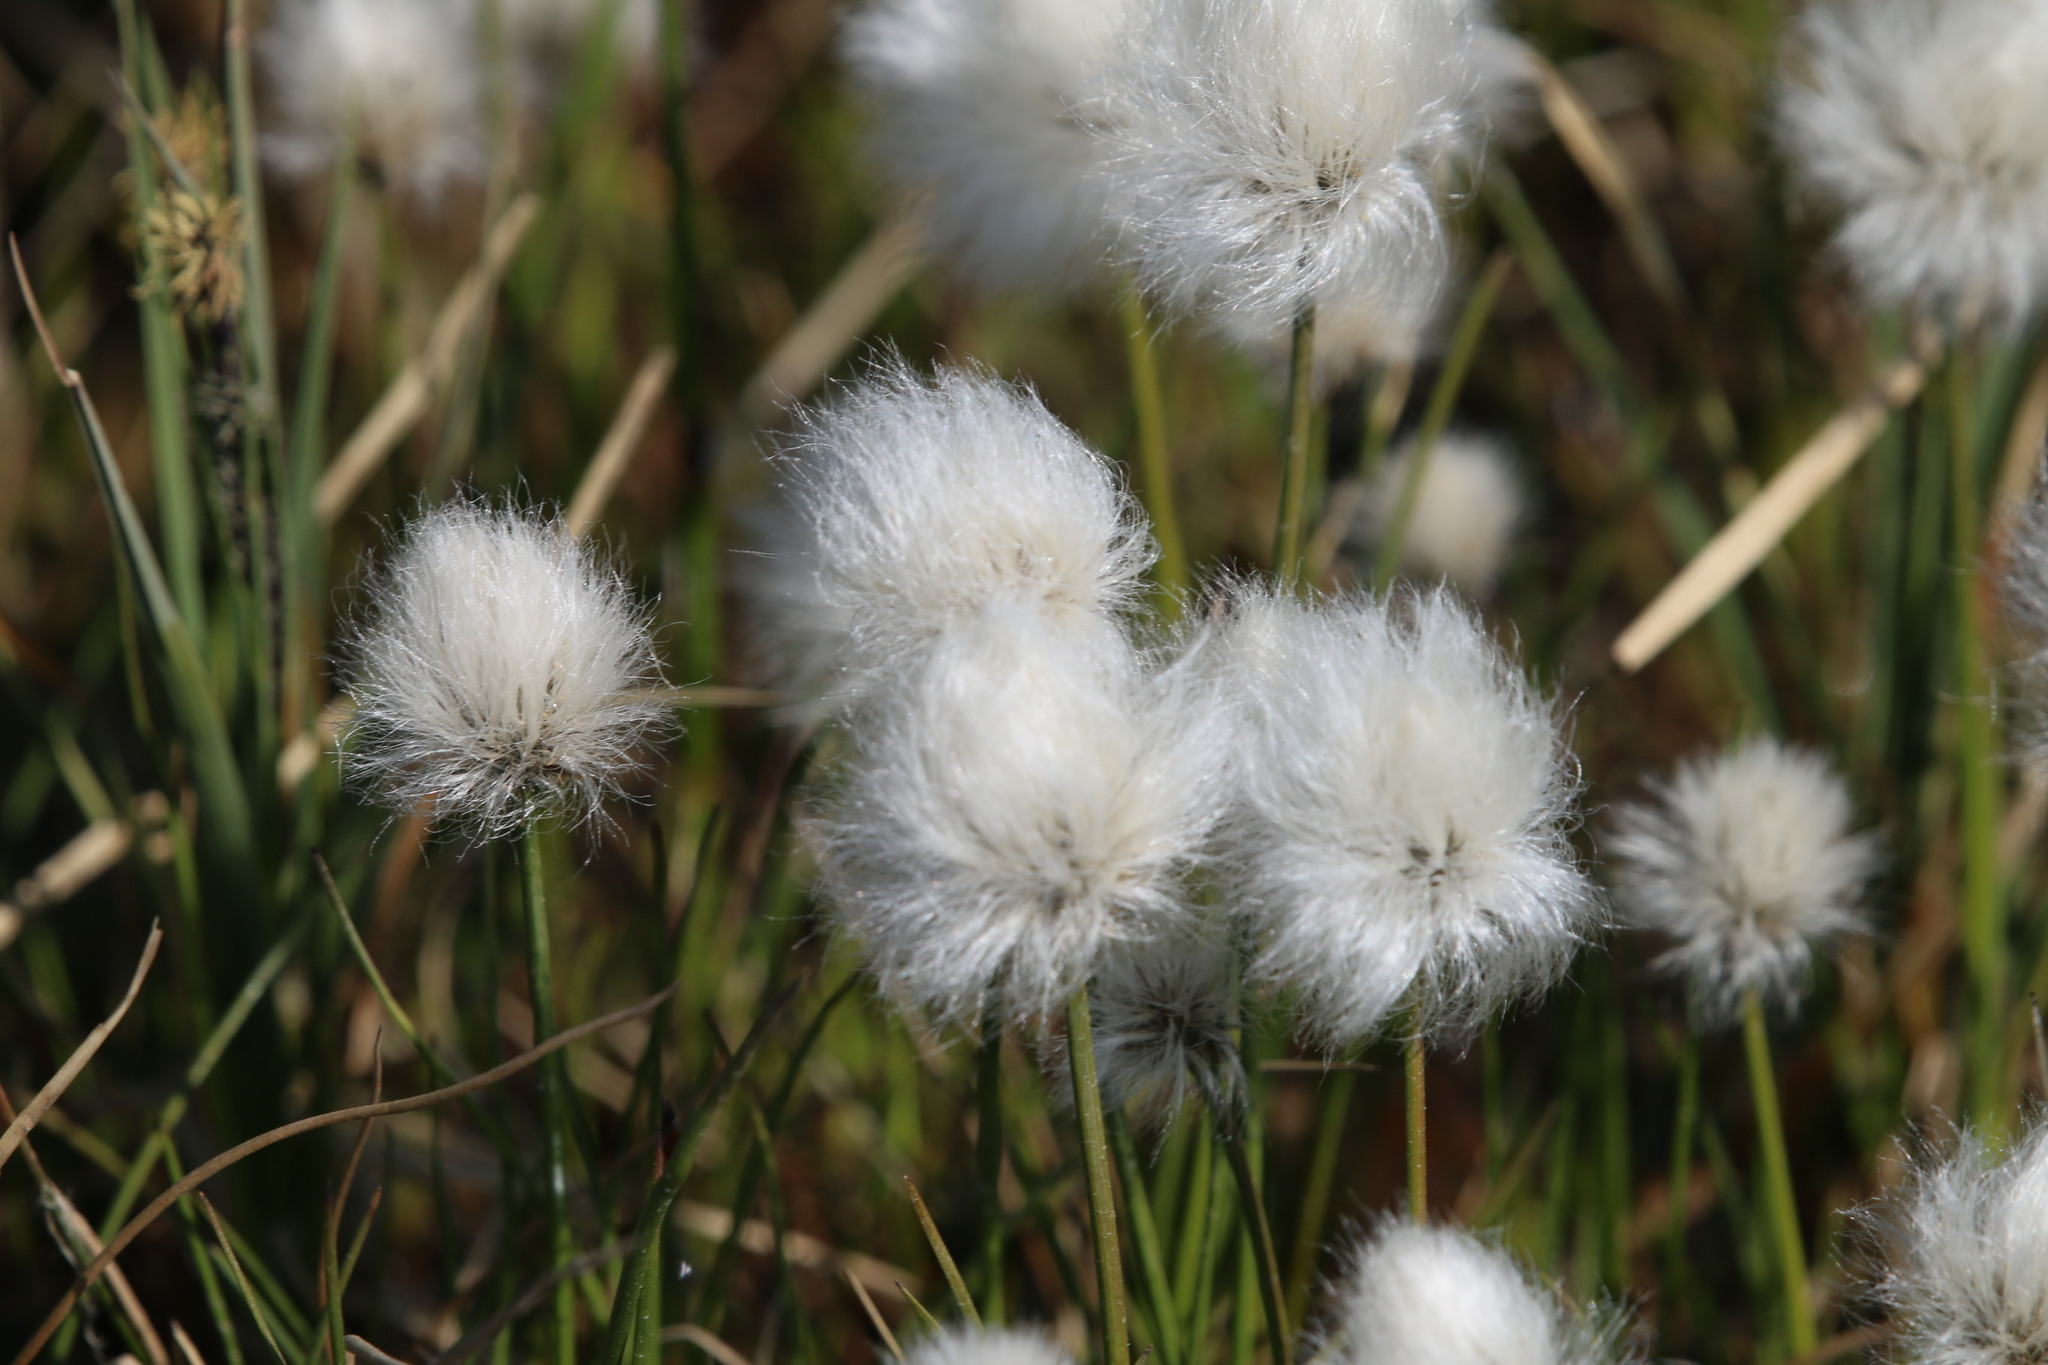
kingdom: Plantae
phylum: Tracheophyta
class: Liliopsida
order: Poales
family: Cyperaceae
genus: Eriophorum
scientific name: Eriophorum scheuchzeri
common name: Scheuchzer's cottongrass
